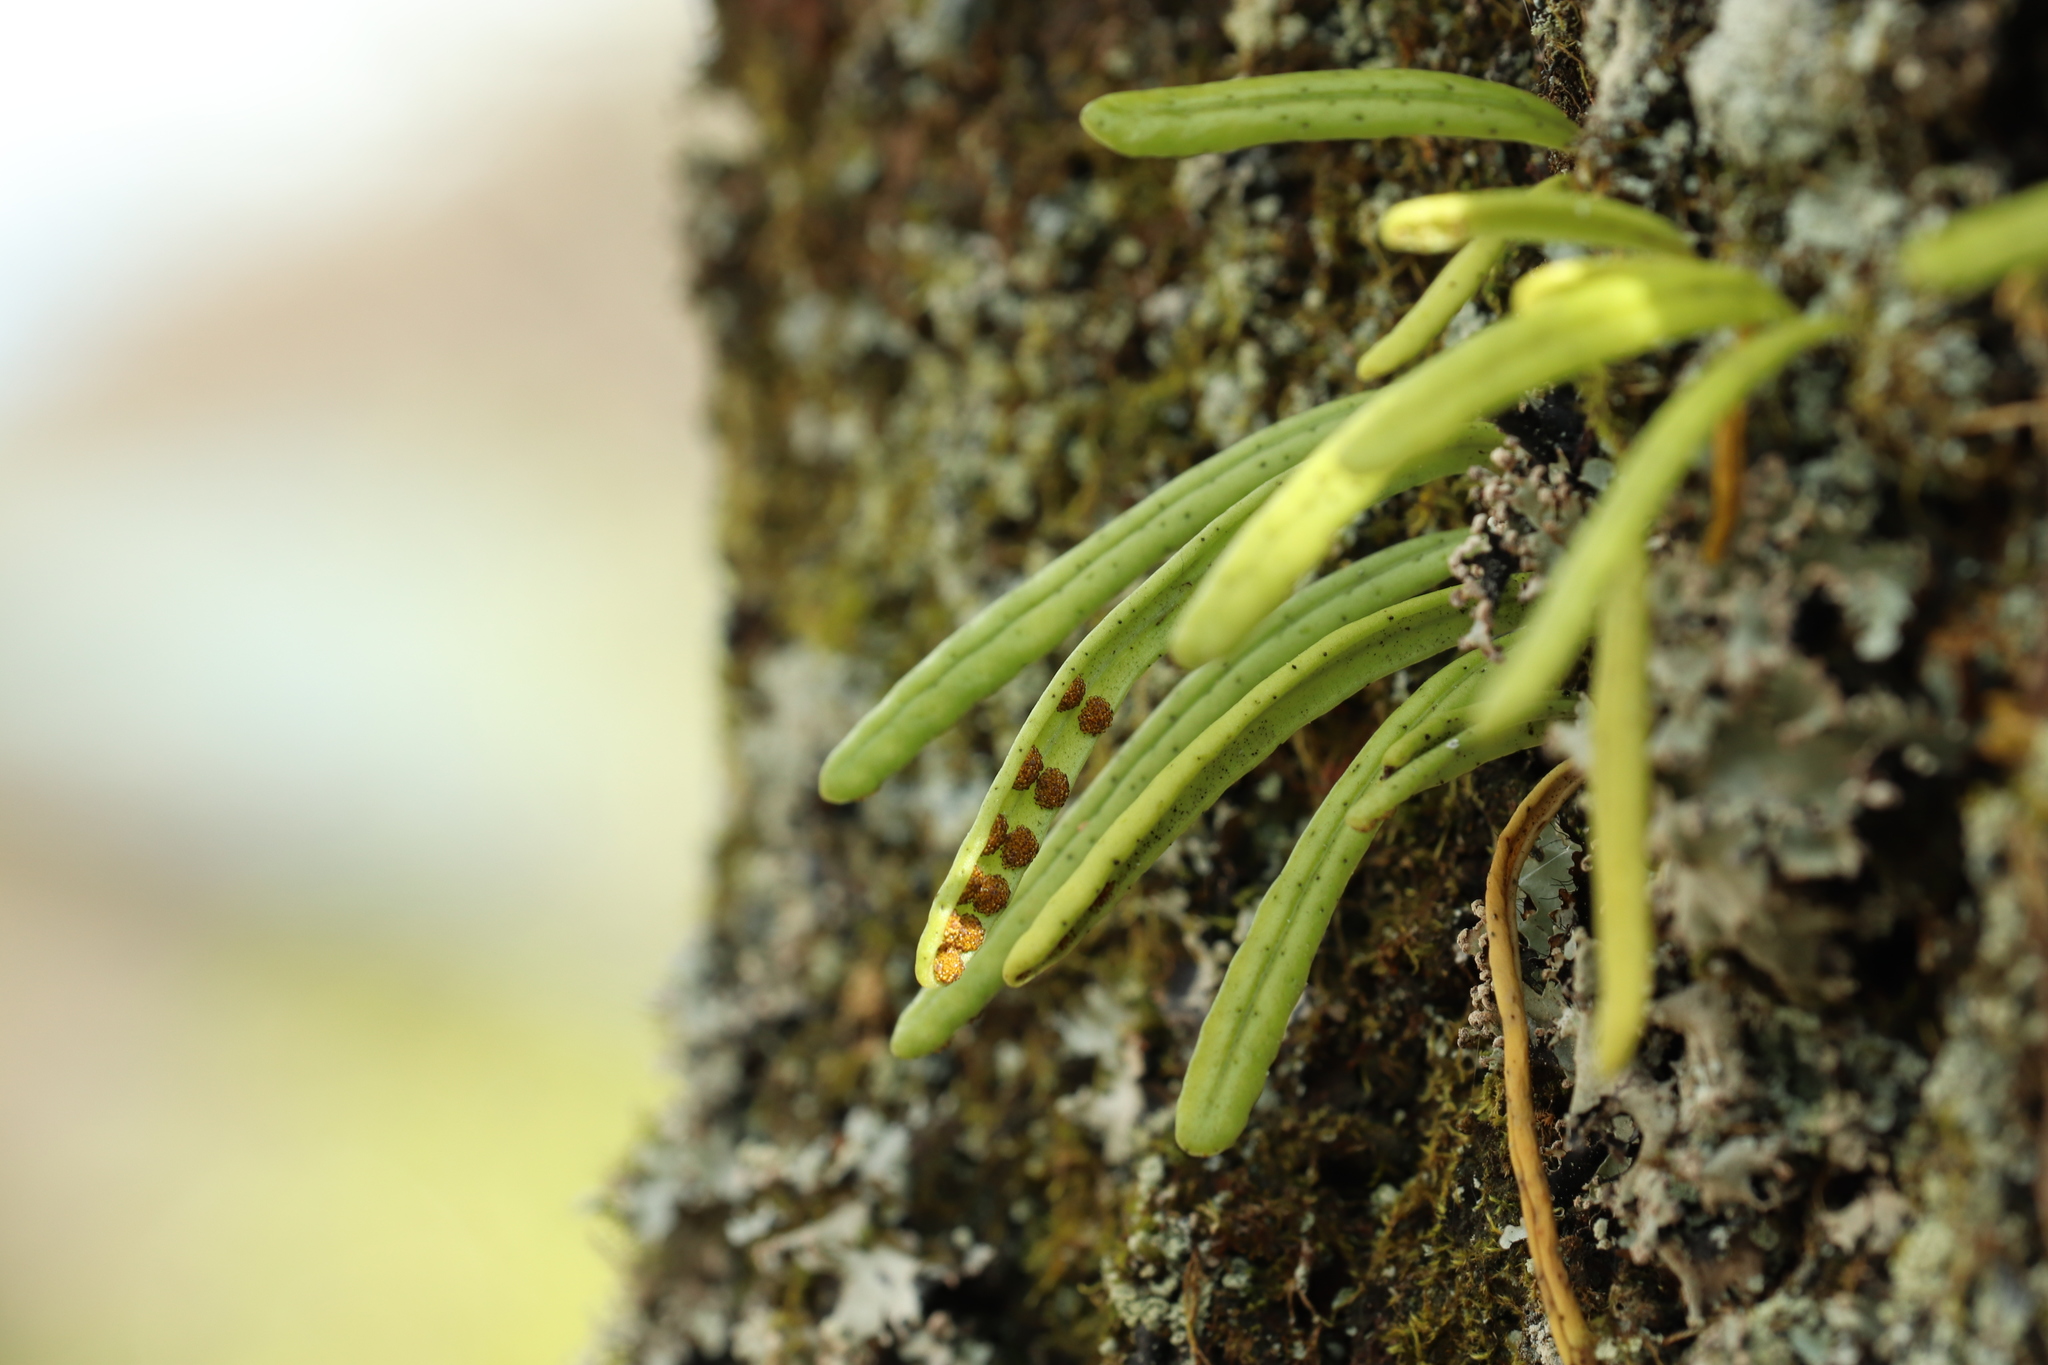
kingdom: Plantae
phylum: Tracheophyta
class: Polypodiopsida
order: Polypodiales
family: Polypodiaceae
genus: Lepisorus
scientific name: Lepisorus onoei
